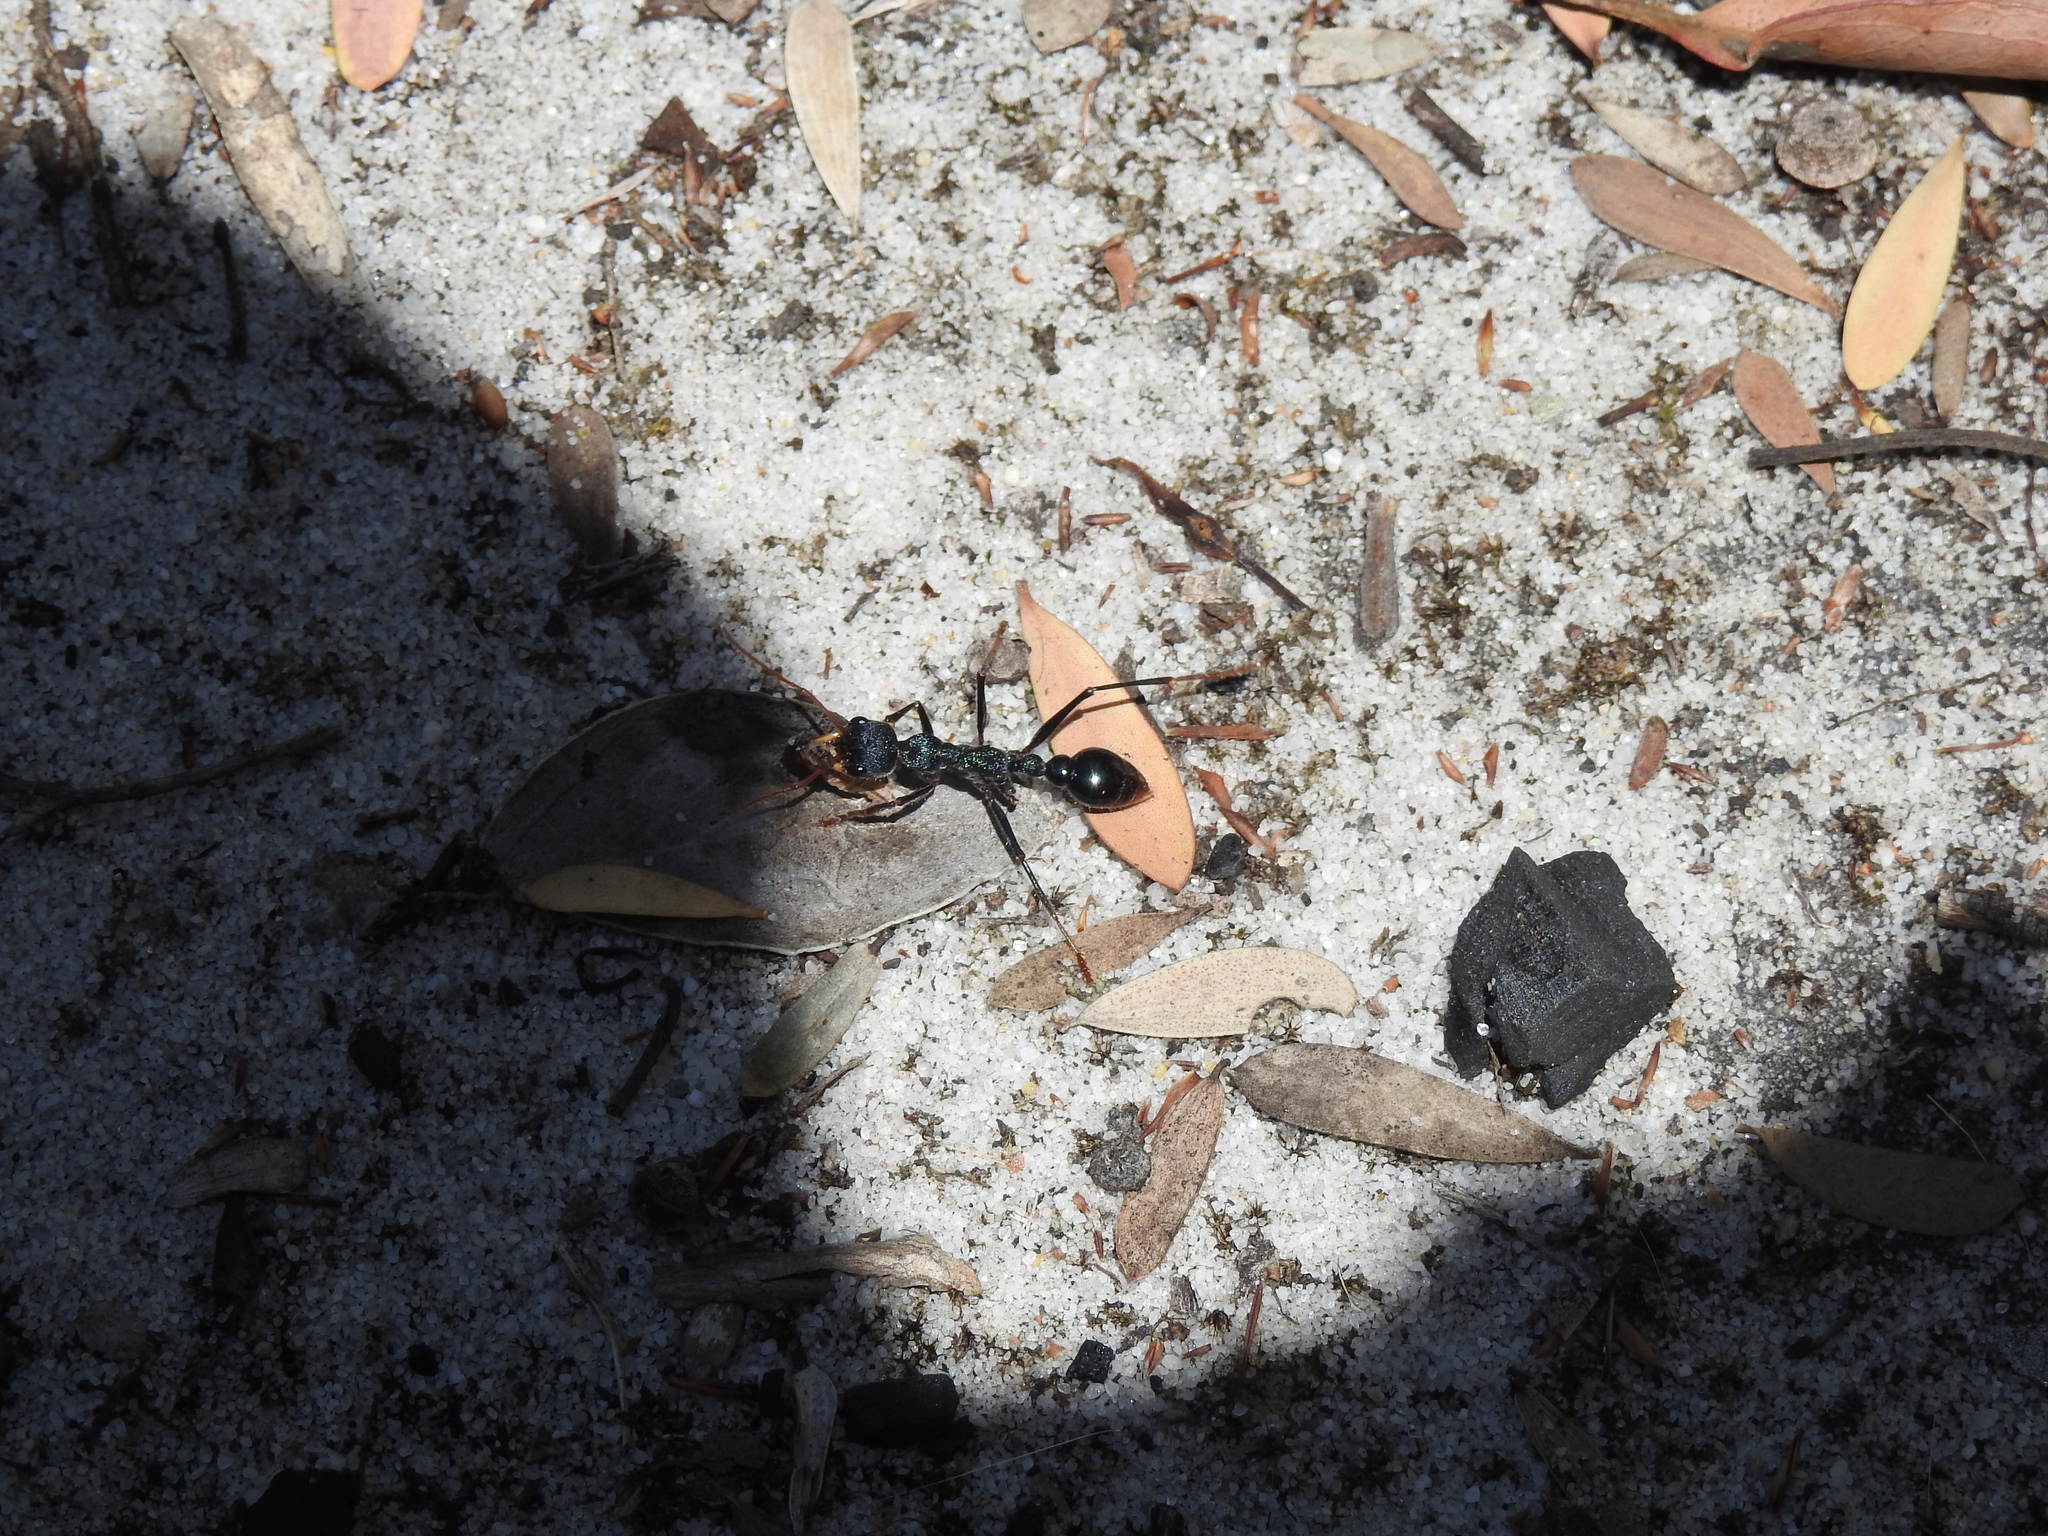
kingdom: Animalia
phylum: Arthropoda
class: Insecta
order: Hymenoptera
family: Formicidae
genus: Myrmecia
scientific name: Myrmecia tarsata
